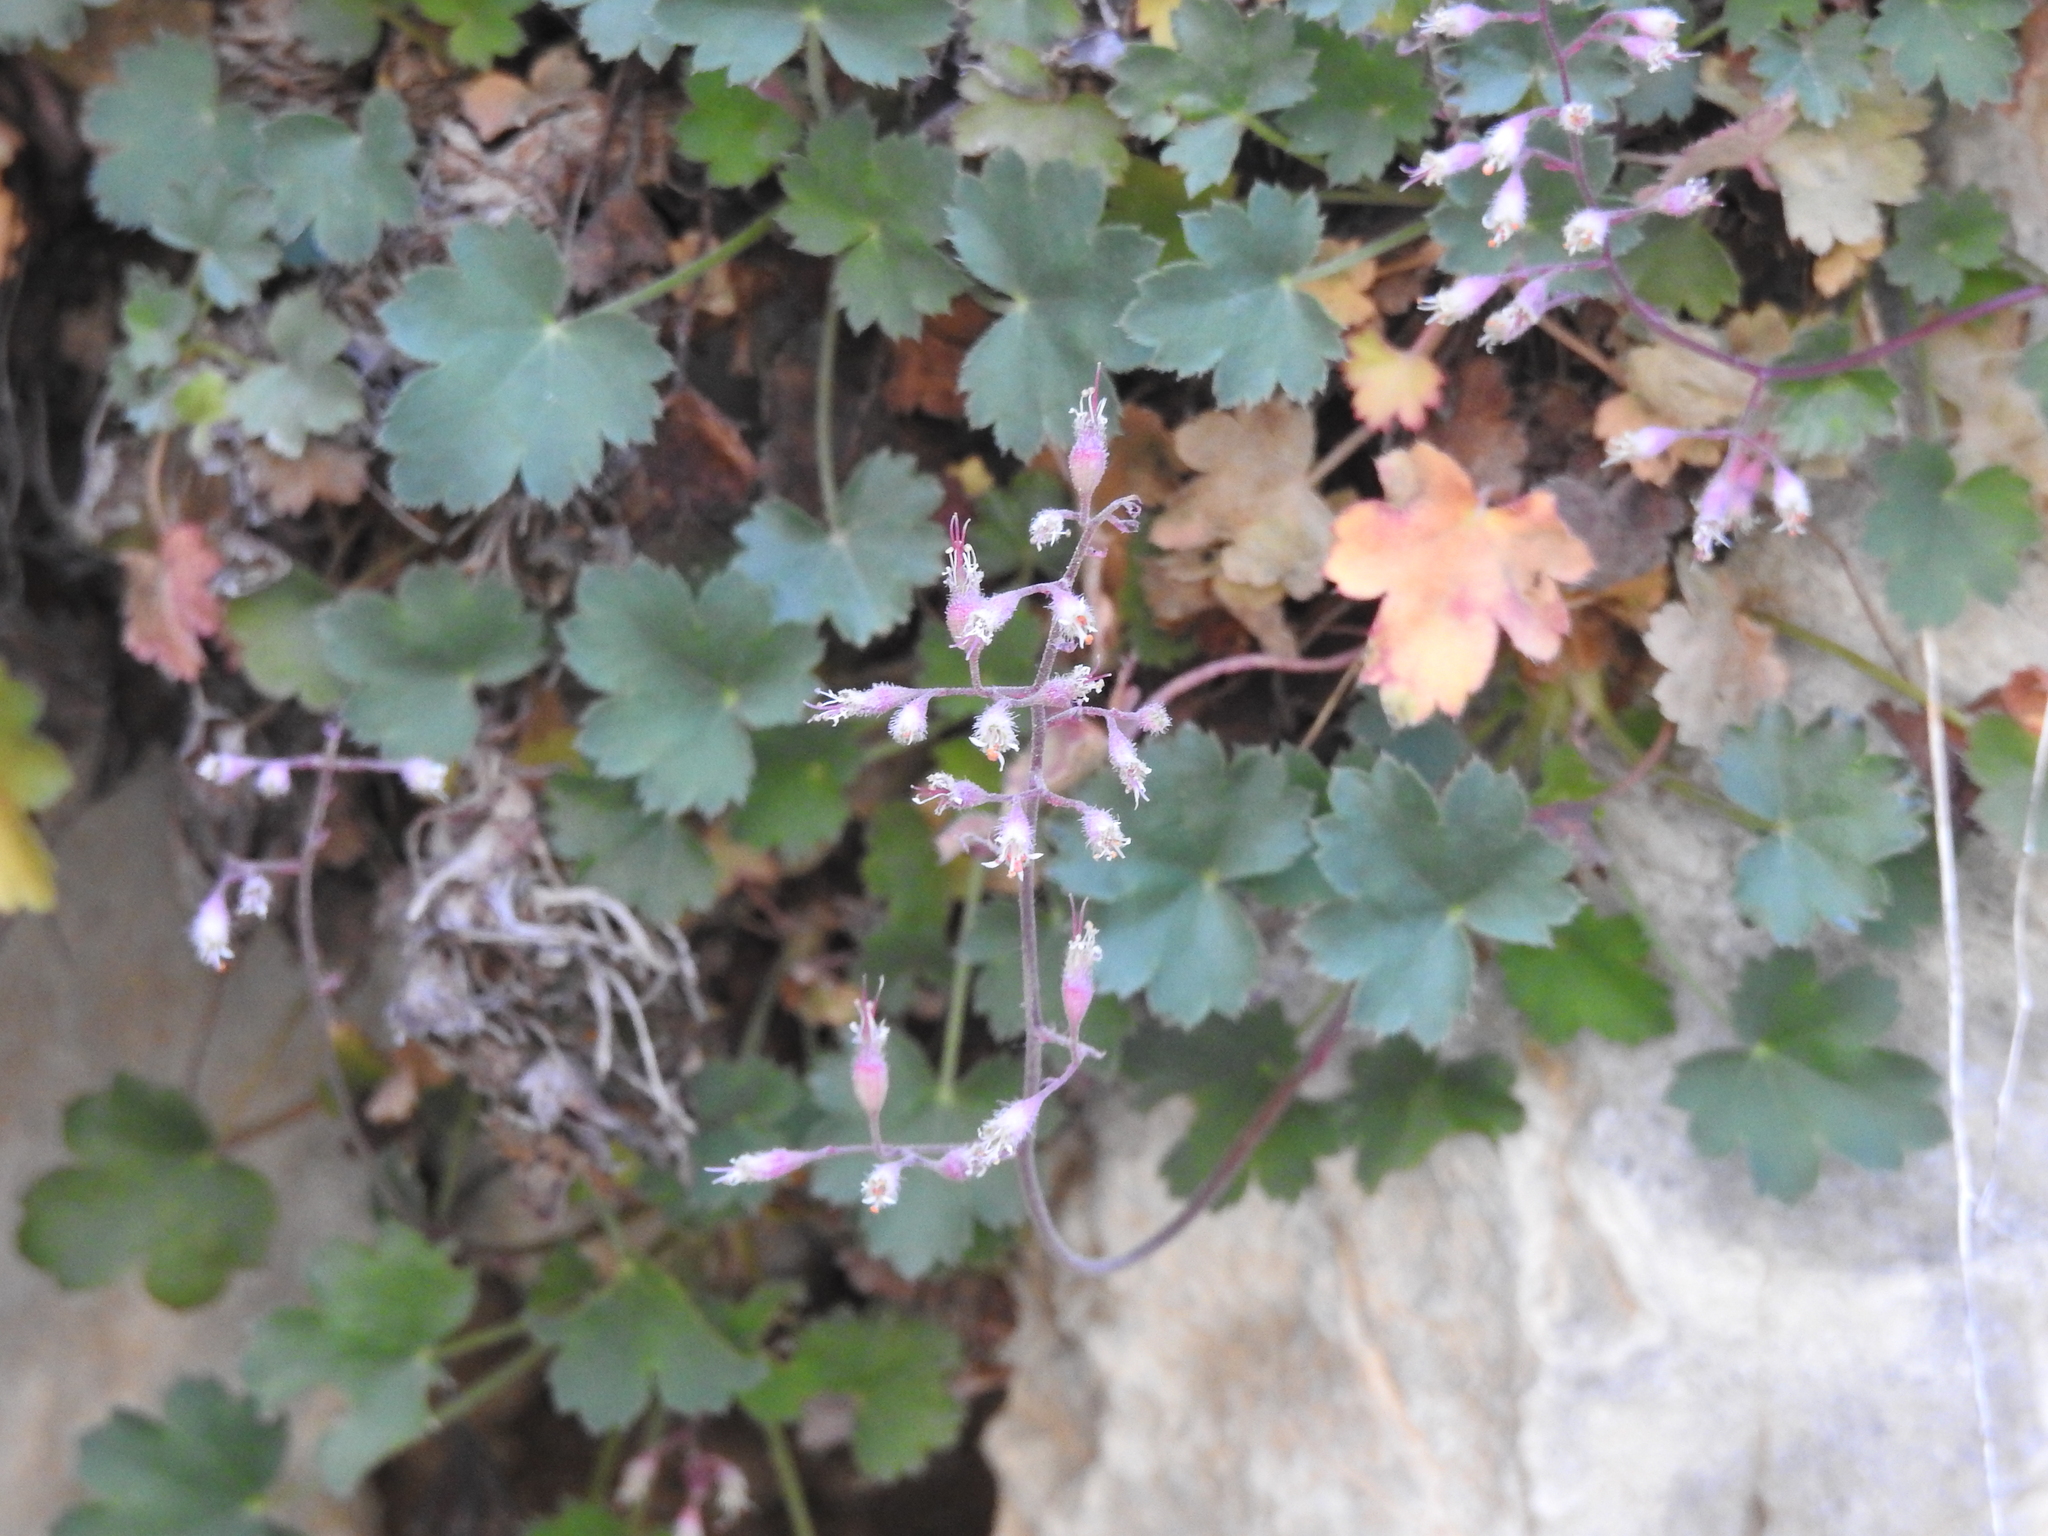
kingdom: Plantae
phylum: Tracheophyta
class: Magnoliopsida
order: Saxifragales
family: Saxifragaceae
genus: Heuchera
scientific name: Heuchera rubescens
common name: Jack-o'the-rocks
